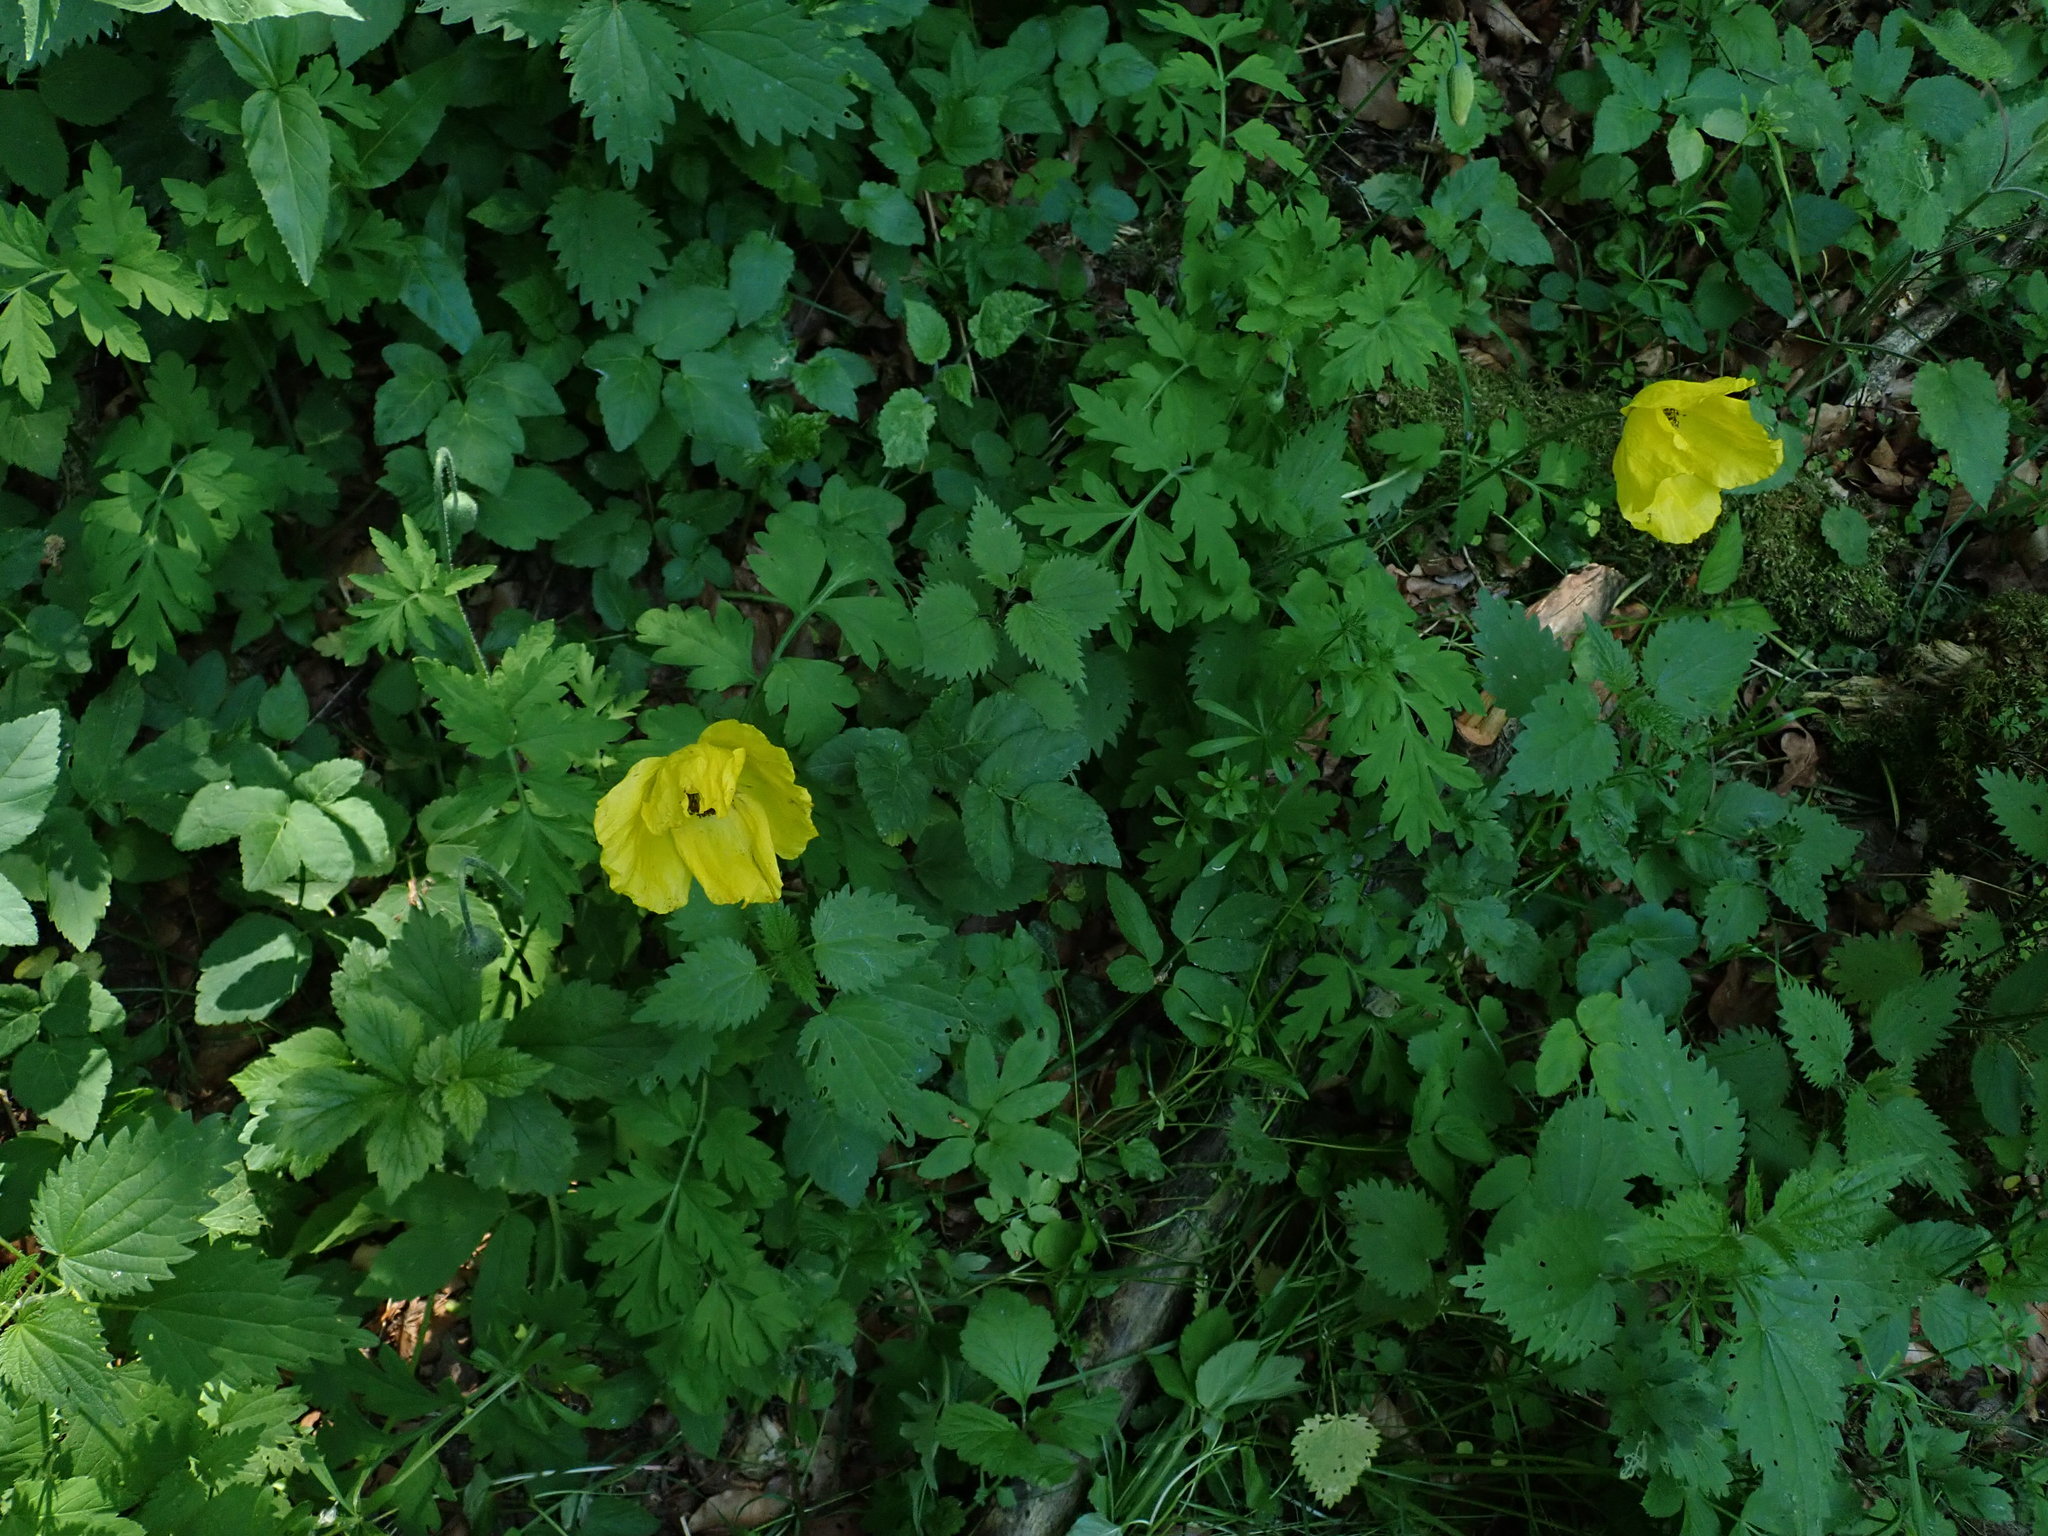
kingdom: Plantae
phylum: Tracheophyta
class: Magnoliopsida
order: Ranunculales
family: Papaveraceae
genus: Papaver
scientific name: Papaver cambricum
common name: Poppy
